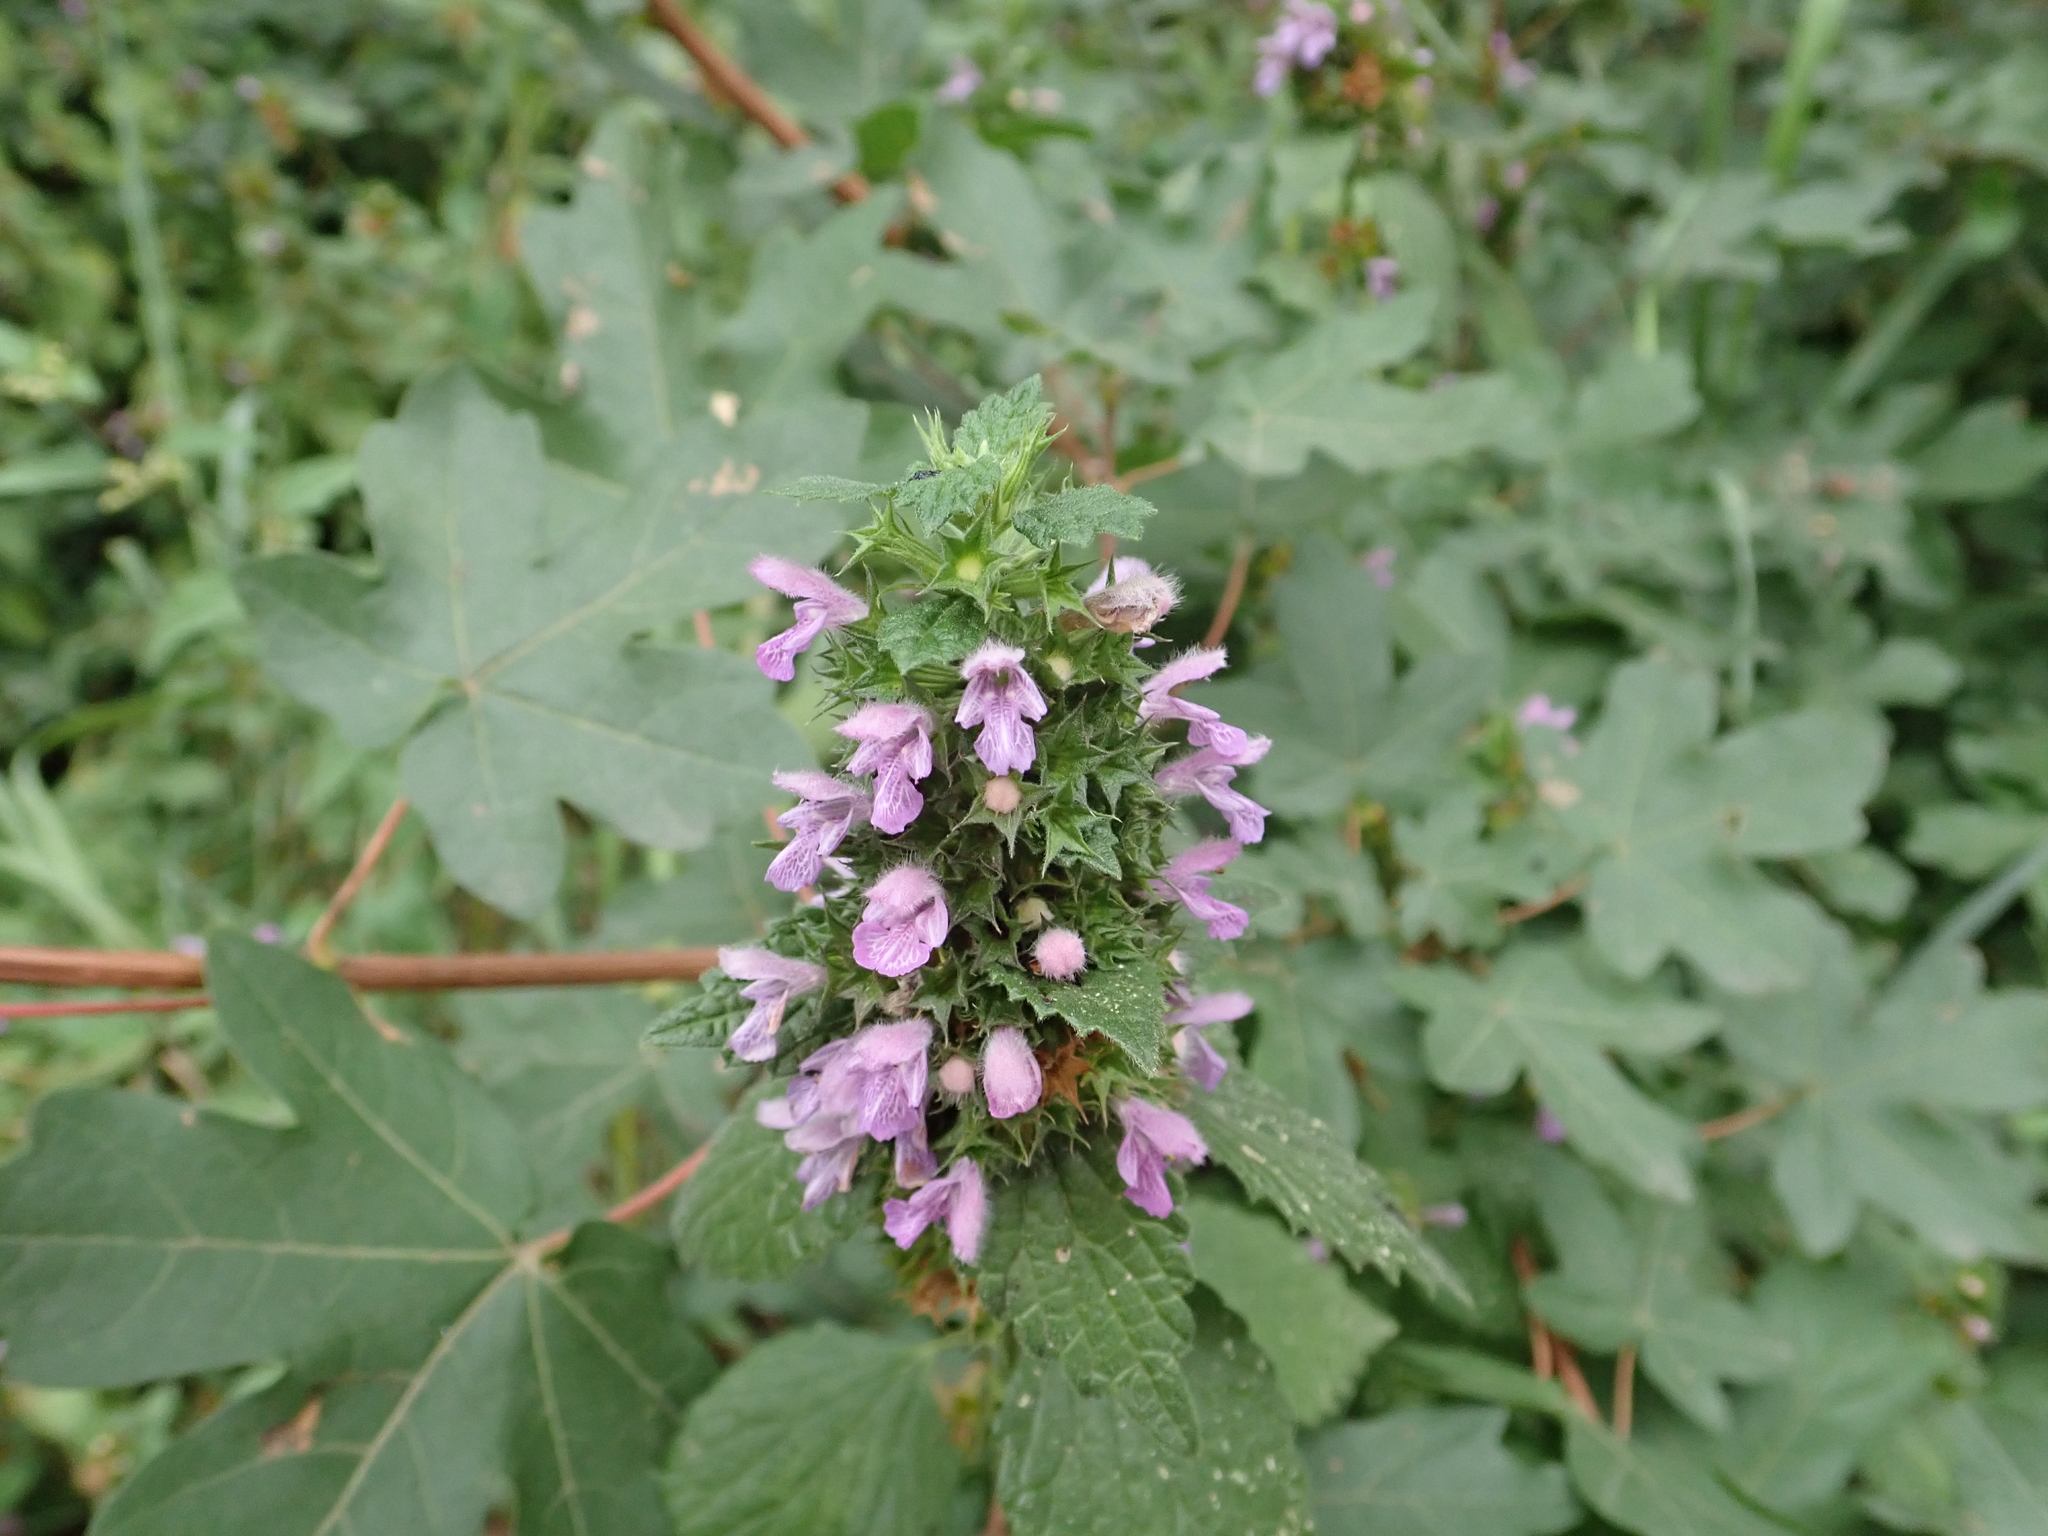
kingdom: Plantae
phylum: Tracheophyta
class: Magnoliopsida
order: Lamiales
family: Lamiaceae
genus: Ballota
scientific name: Ballota nigra
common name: Black horehound
